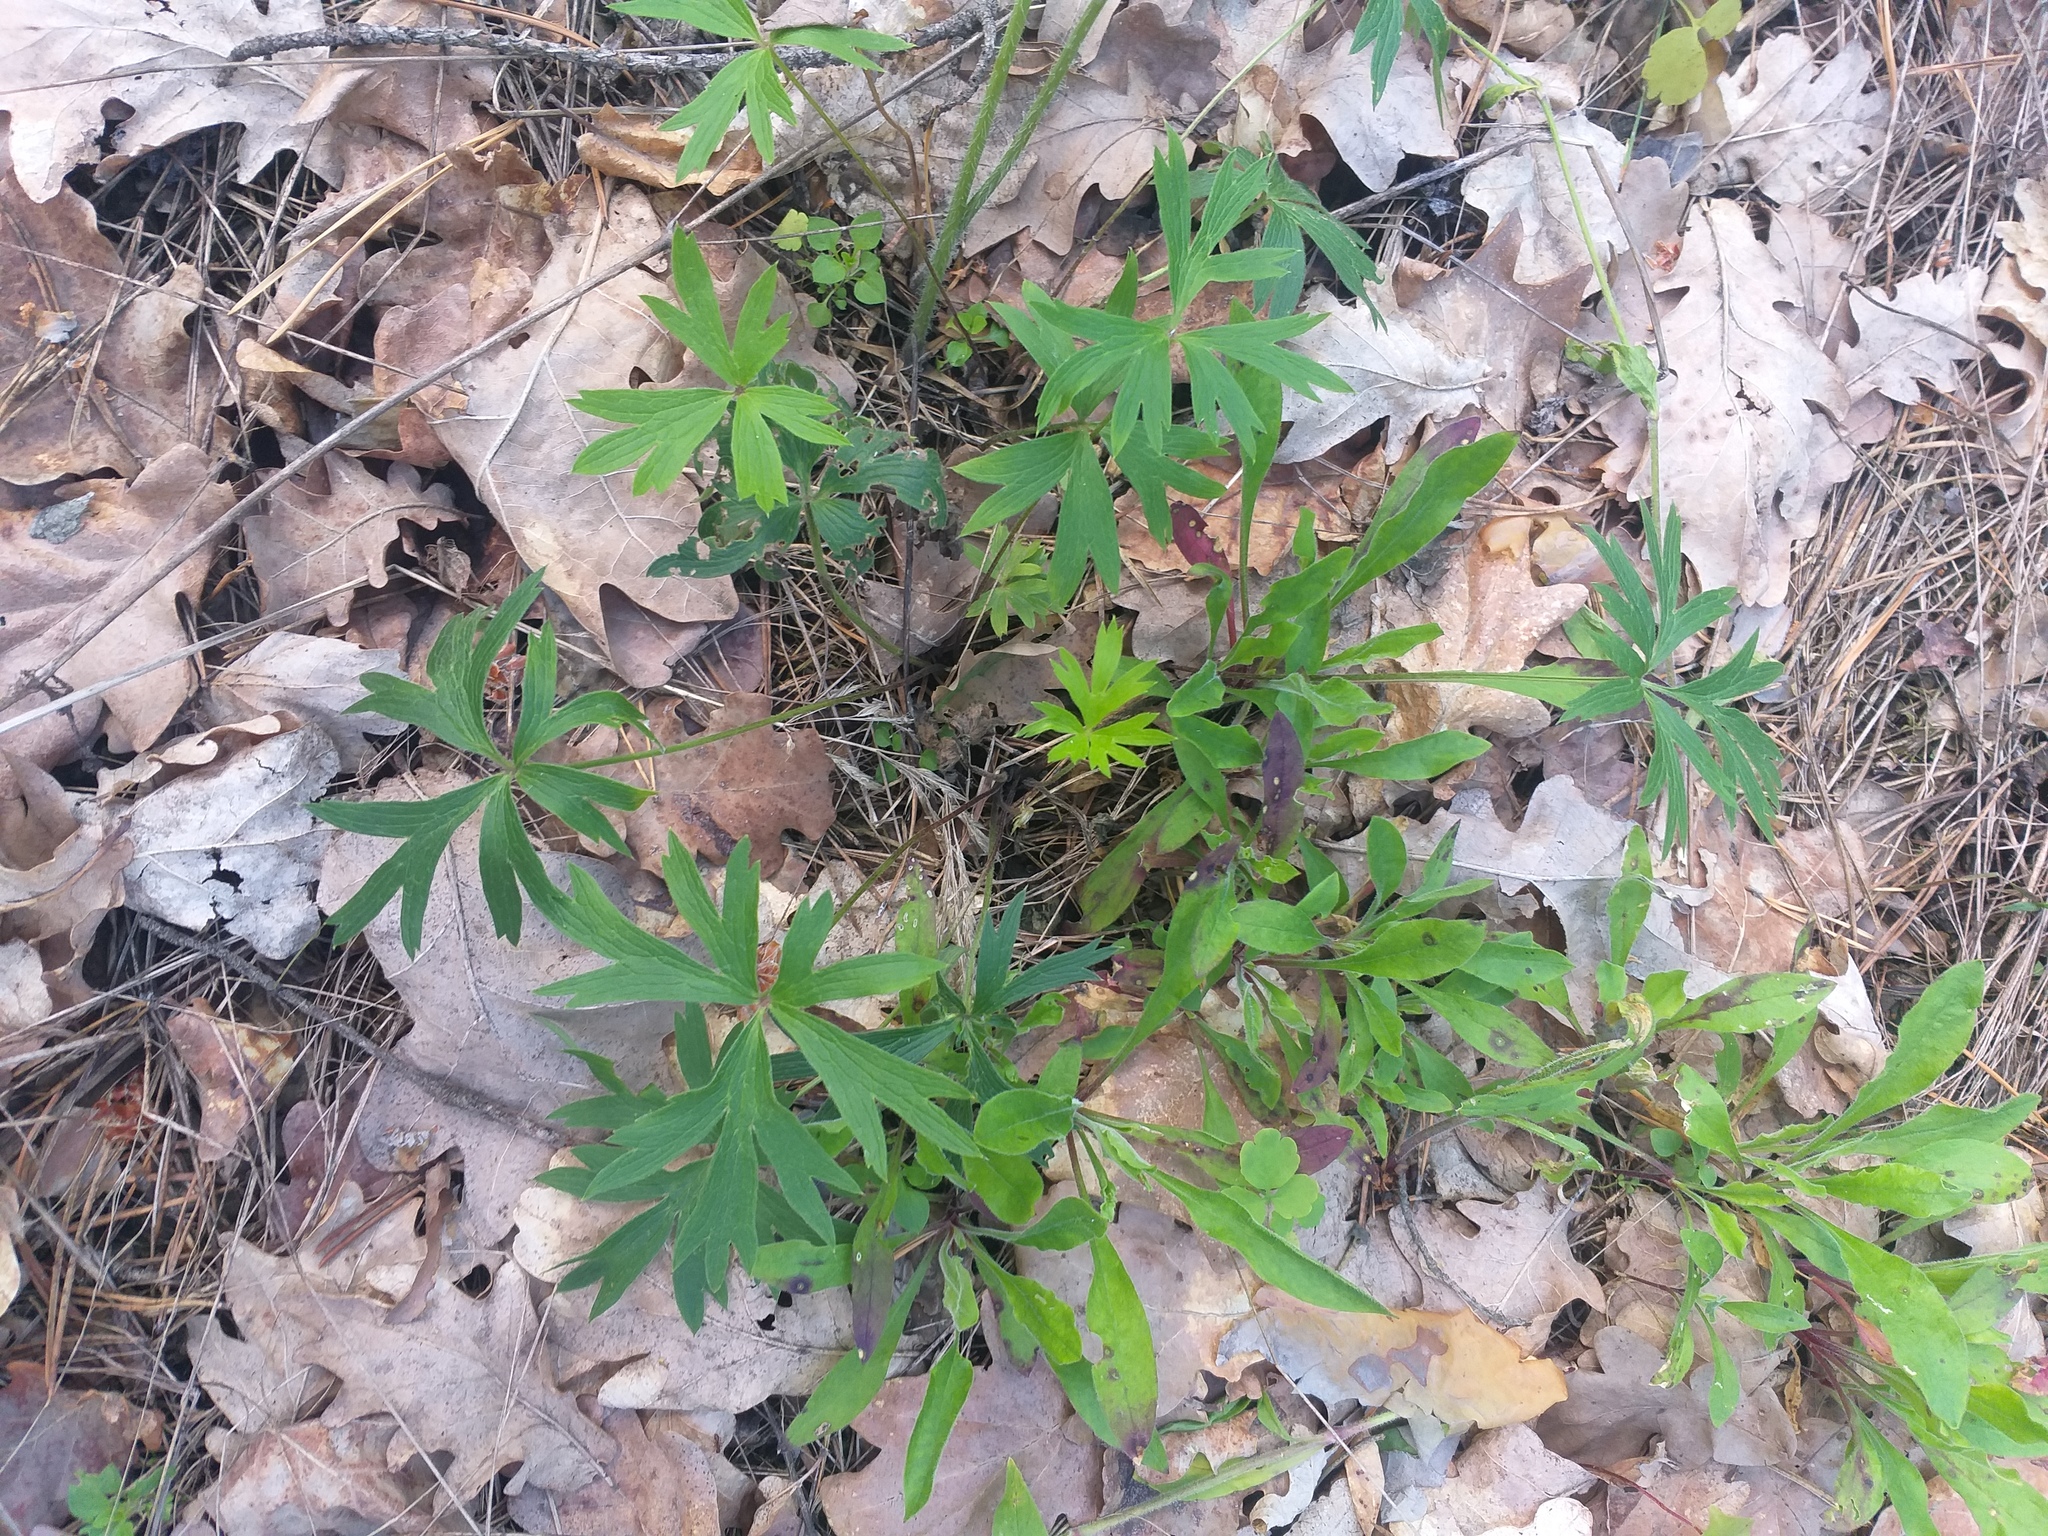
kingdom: Plantae
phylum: Tracheophyta
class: Magnoliopsida
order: Ranunculales
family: Ranunculaceae
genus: Pulsatilla
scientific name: Pulsatilla patens
